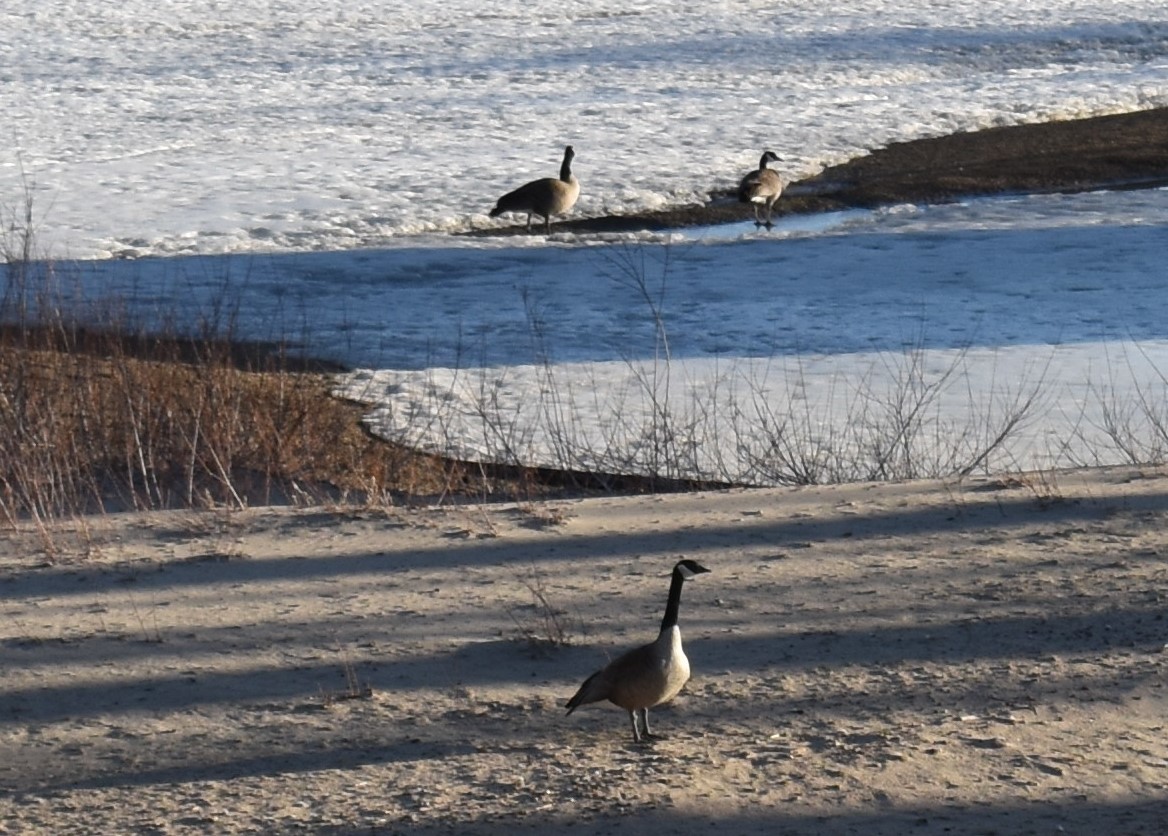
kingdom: Animalia
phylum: Chordata
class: Aves
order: Anseriformes
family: Anatidae
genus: Branta
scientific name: Branta canadensis
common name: Canada goose
